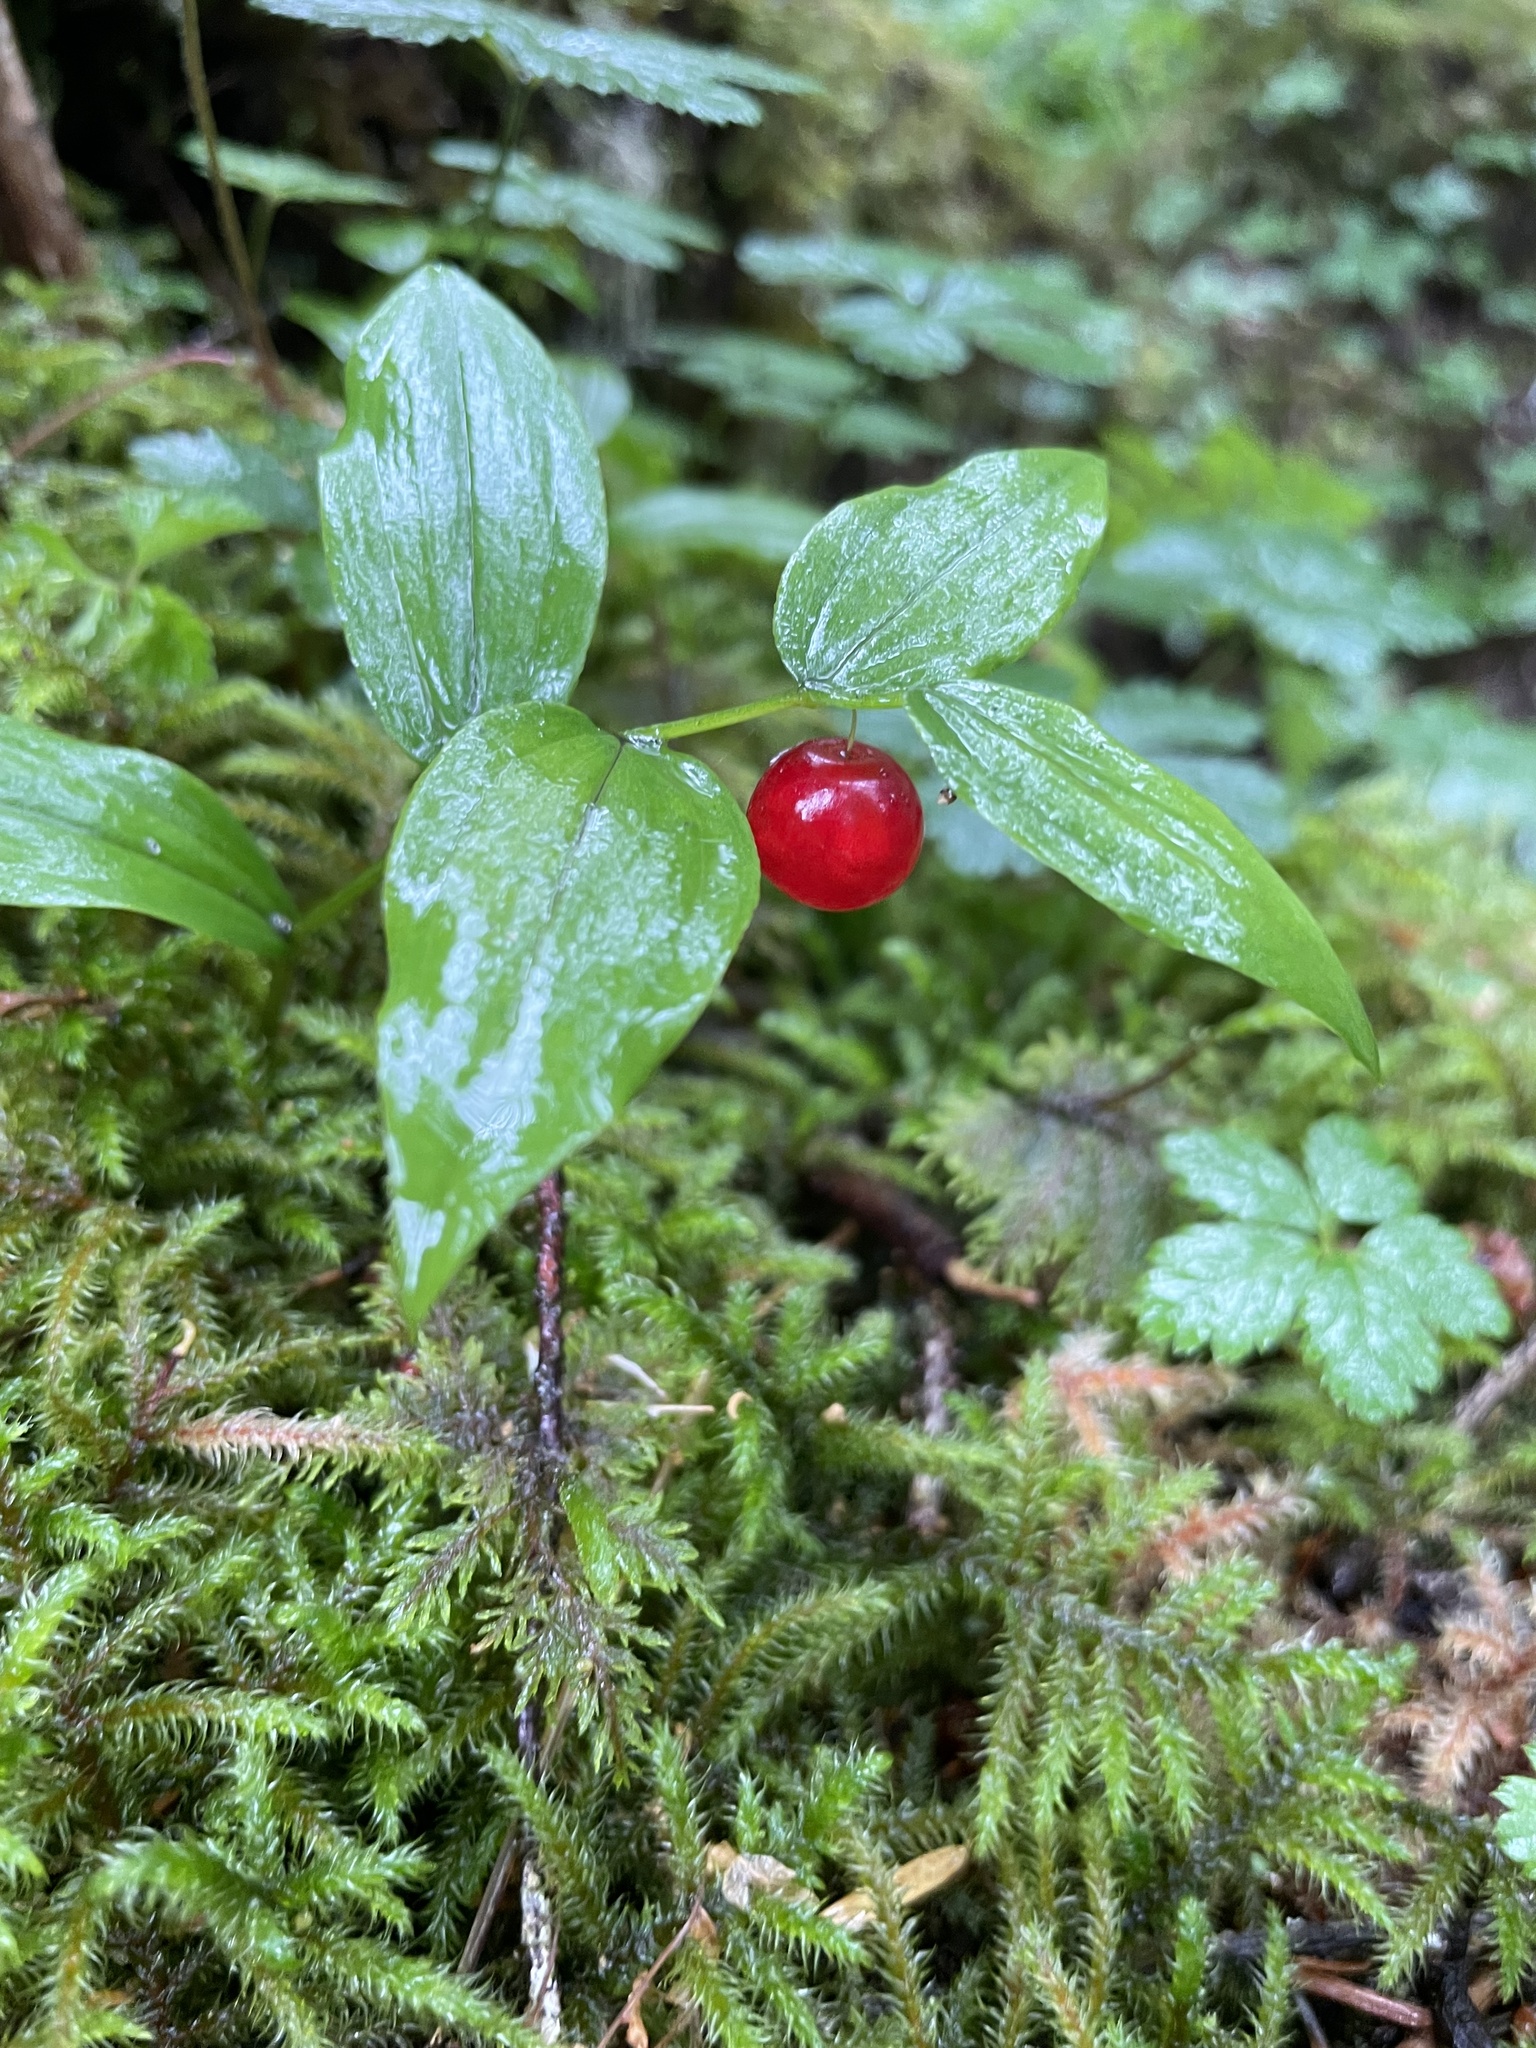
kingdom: Plantae
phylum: Tracheophyta
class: Liliopsida
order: Liliales
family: Liliaceae
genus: Streptopus
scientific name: Streptopus streptopoides
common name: Small twisted-stalk
